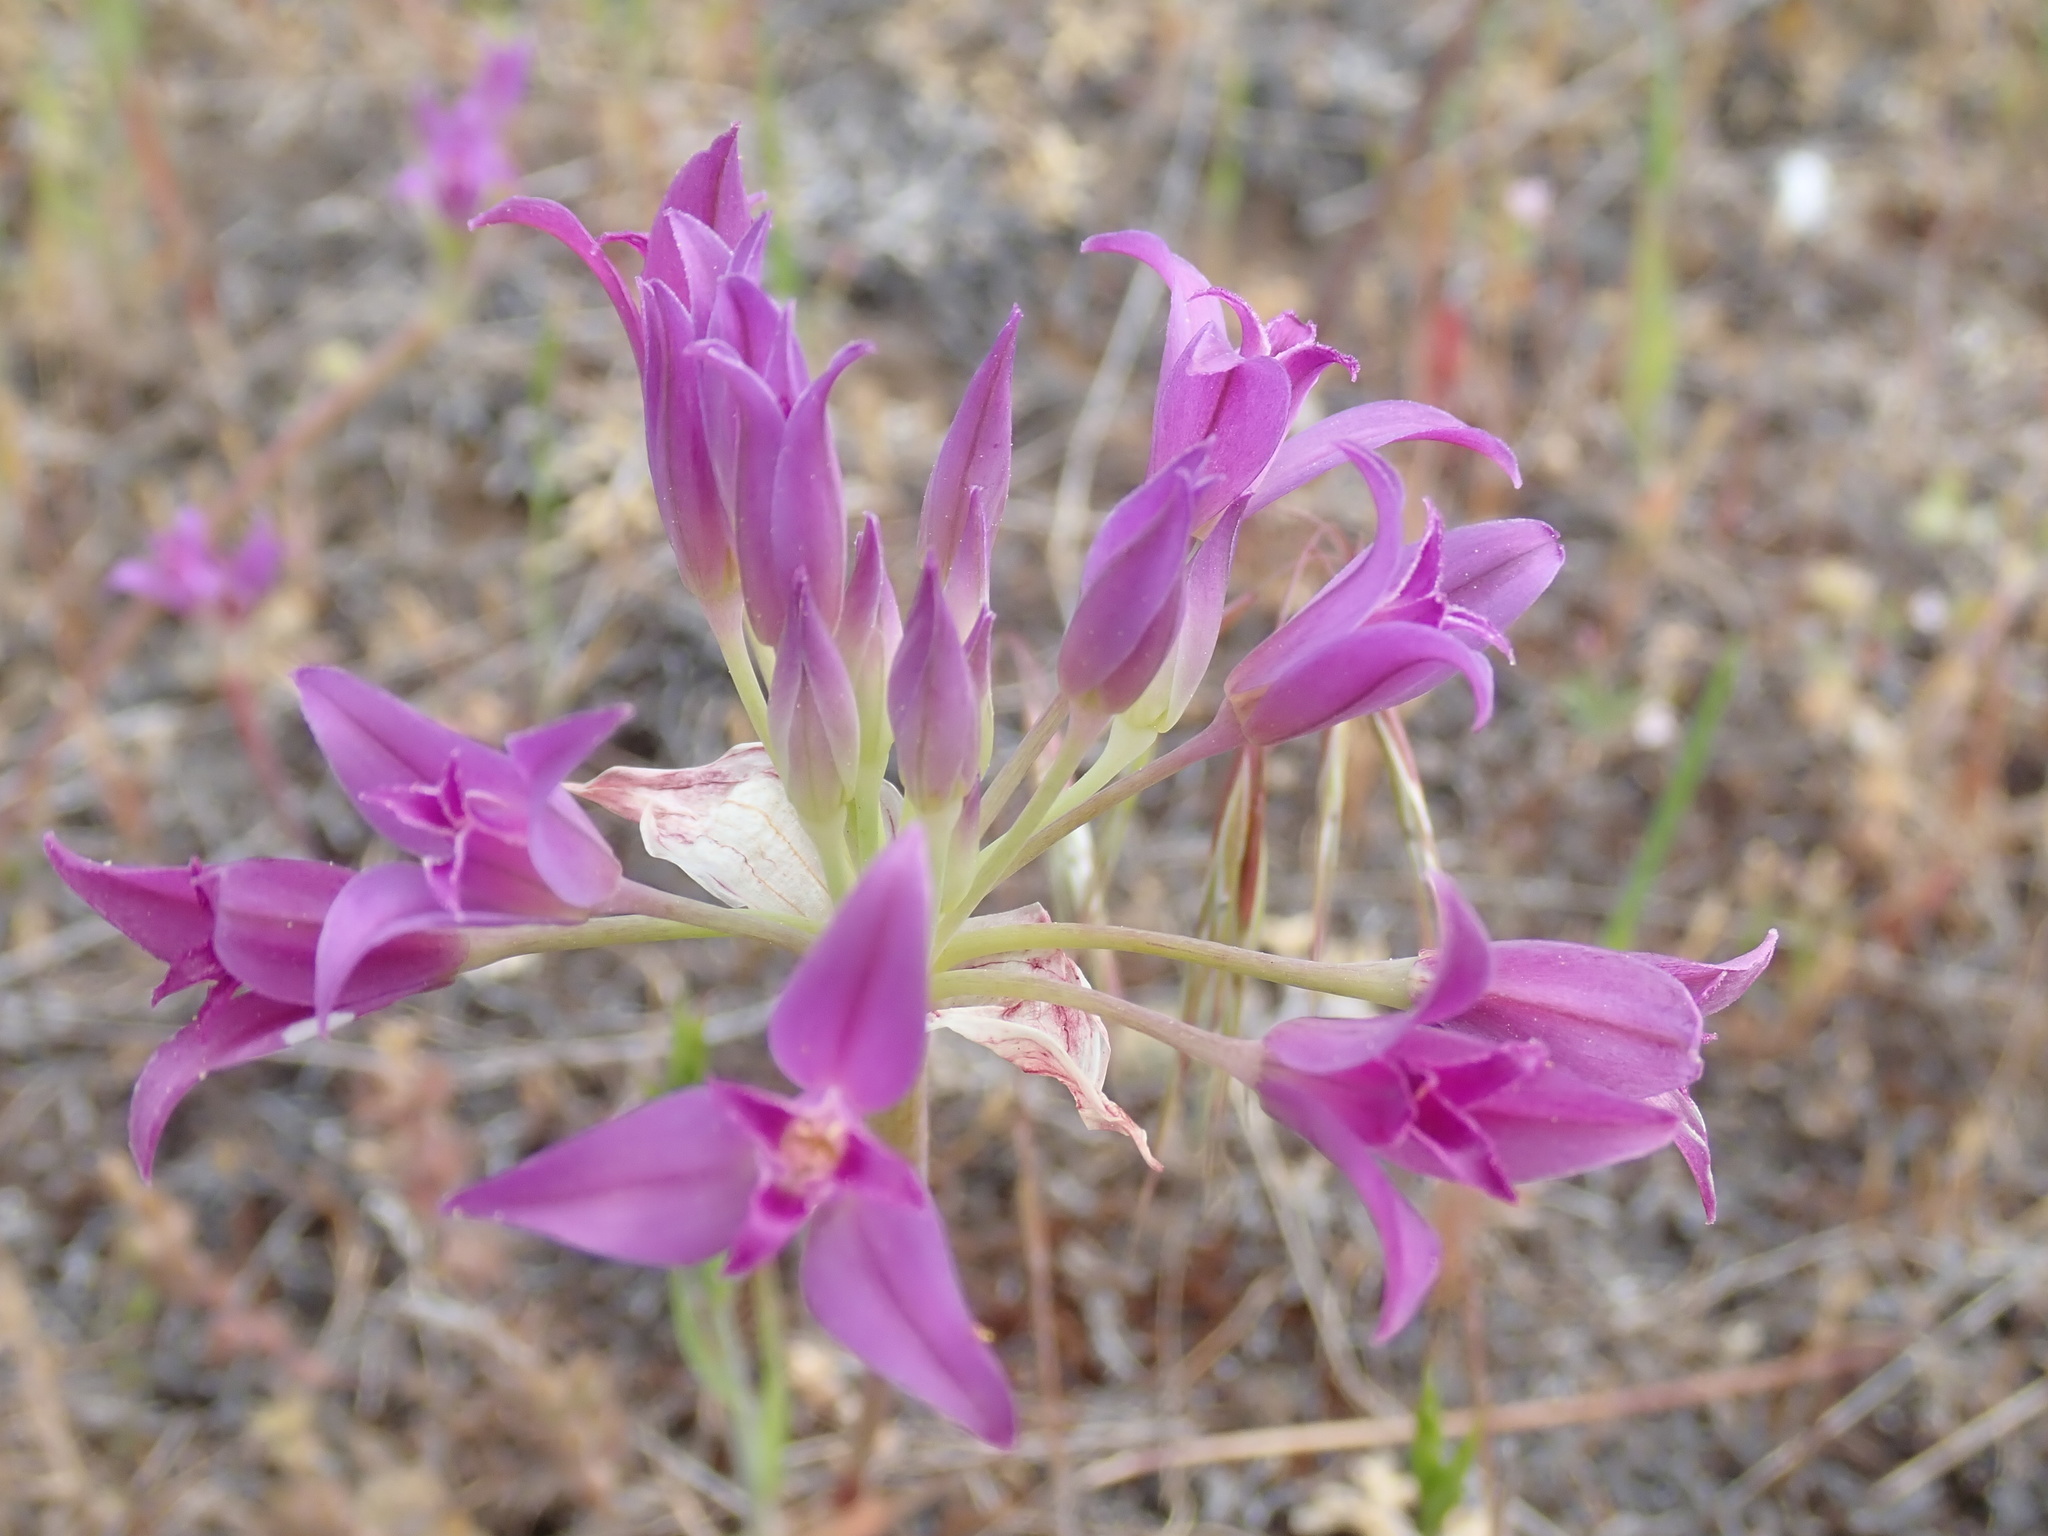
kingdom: Plantae
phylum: Tracheophyta
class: Liliopsida
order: Asparagales
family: Amaryllidaceae
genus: Allium
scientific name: Allium acuminatum
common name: Hooker's onion
